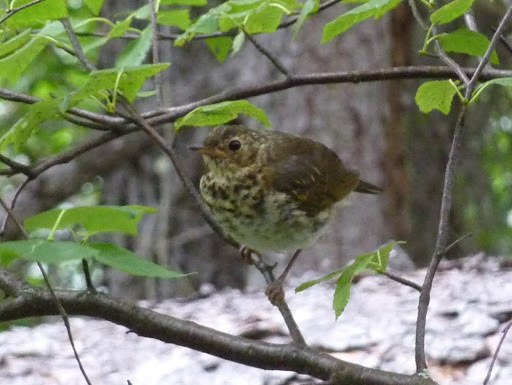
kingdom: Animalia
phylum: Chordata
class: Aves
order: Passeriformes
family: Turdidae
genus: Catharus
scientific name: Catharus guttatus
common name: Hermit thrush
